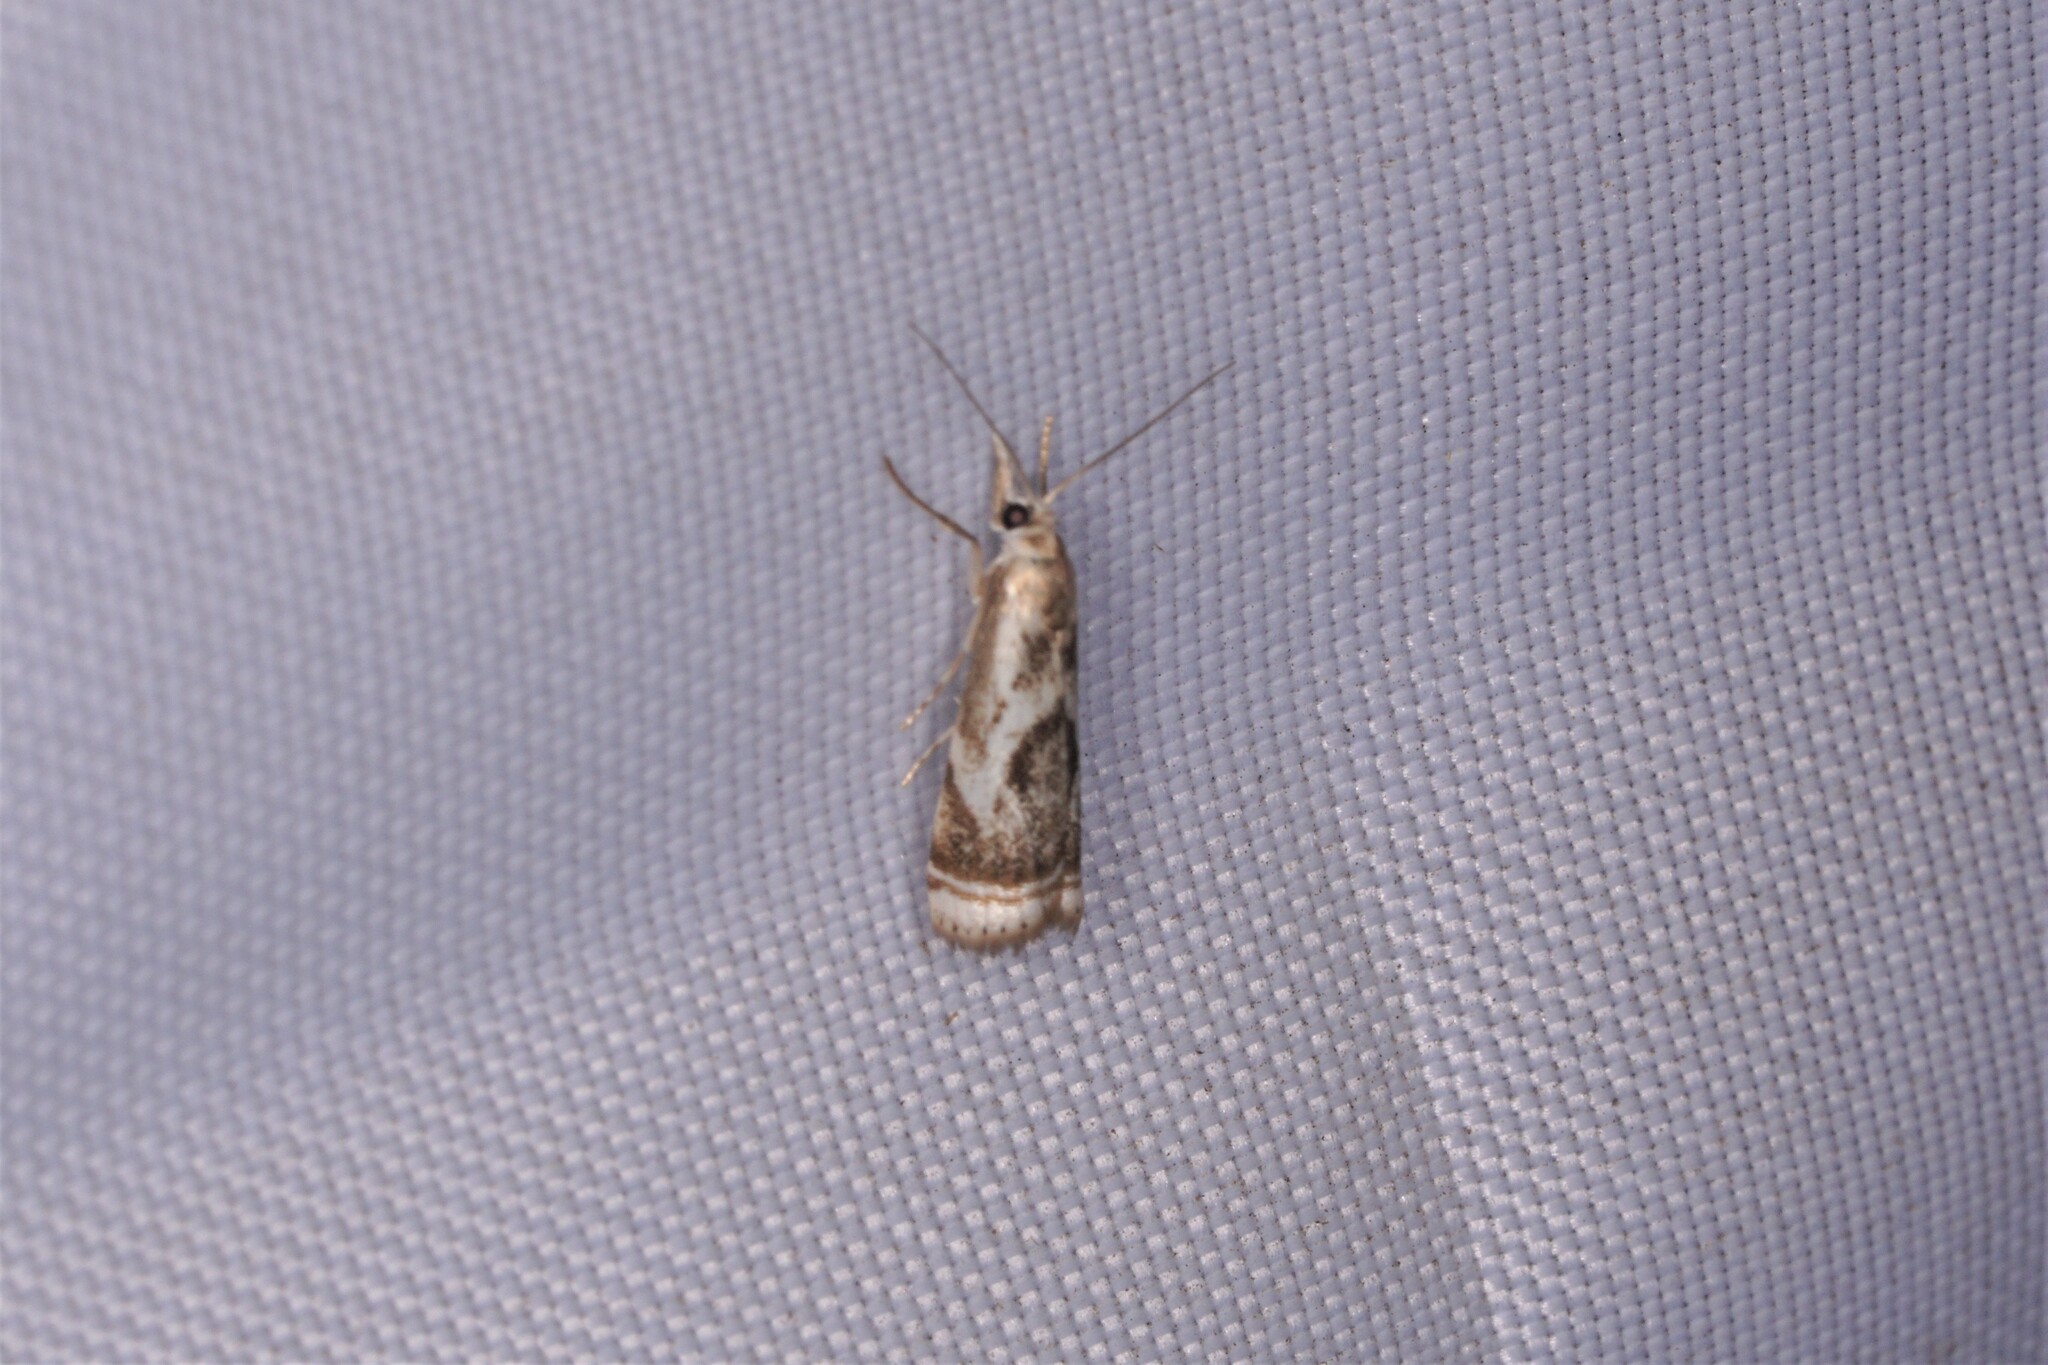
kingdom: Animalia
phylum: Arthropoda
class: Insecta
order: Lepidoptera
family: Crambidae
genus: Microcrambus
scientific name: Microcrambus elegans
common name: Elegant grass-veneer
